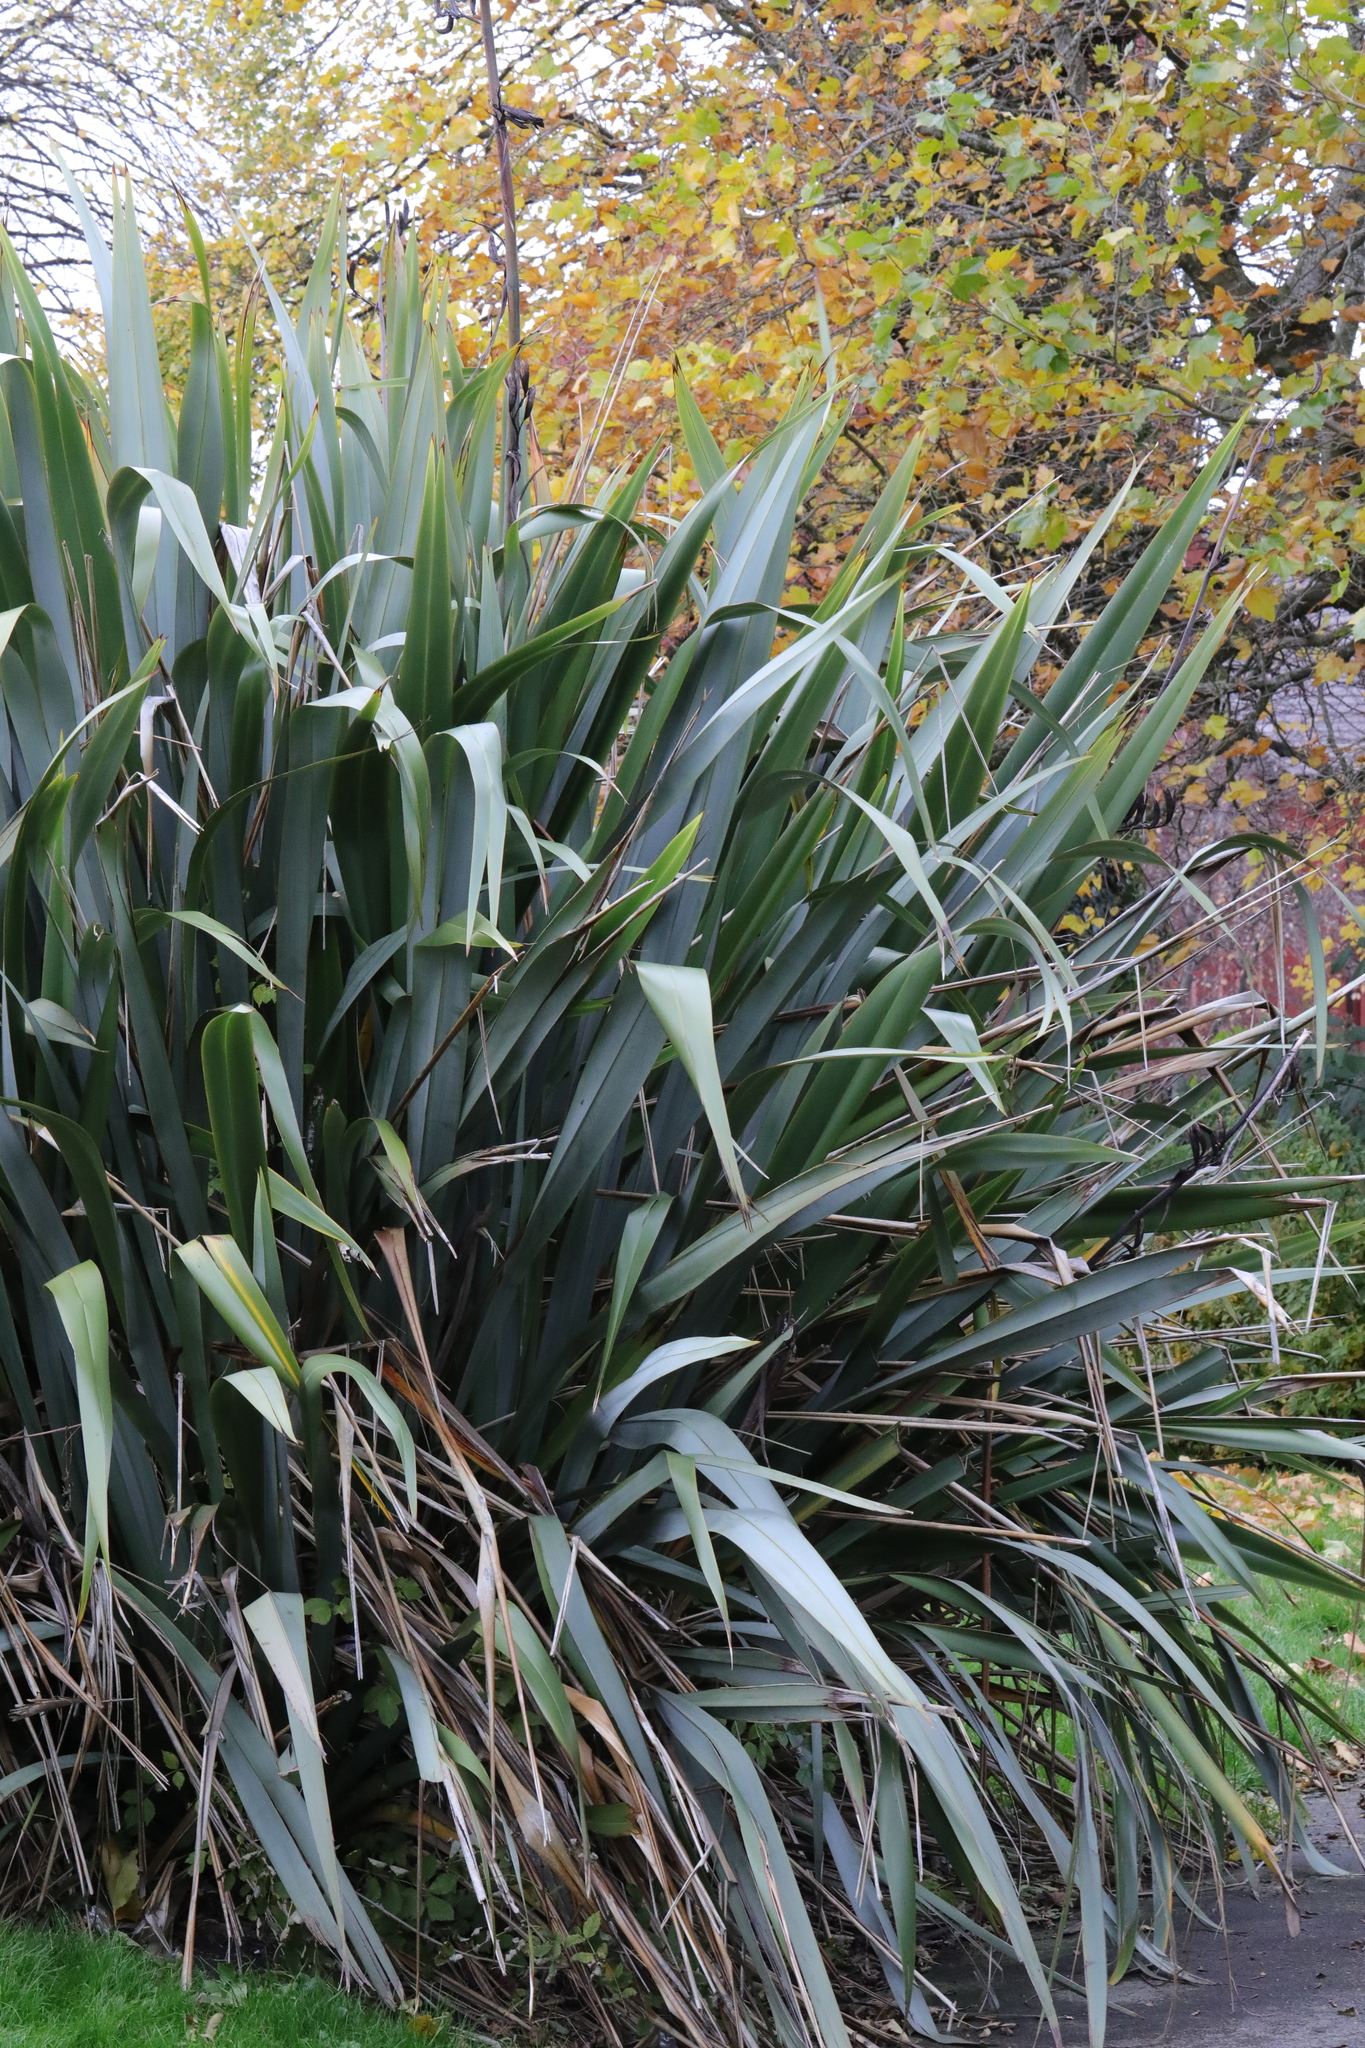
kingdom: Plantae
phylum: Tracheophyta
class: Liliopsida
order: Asparagales
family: Asphodelaceae
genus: Phormium
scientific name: Phormium tenax
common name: New zealand flax
